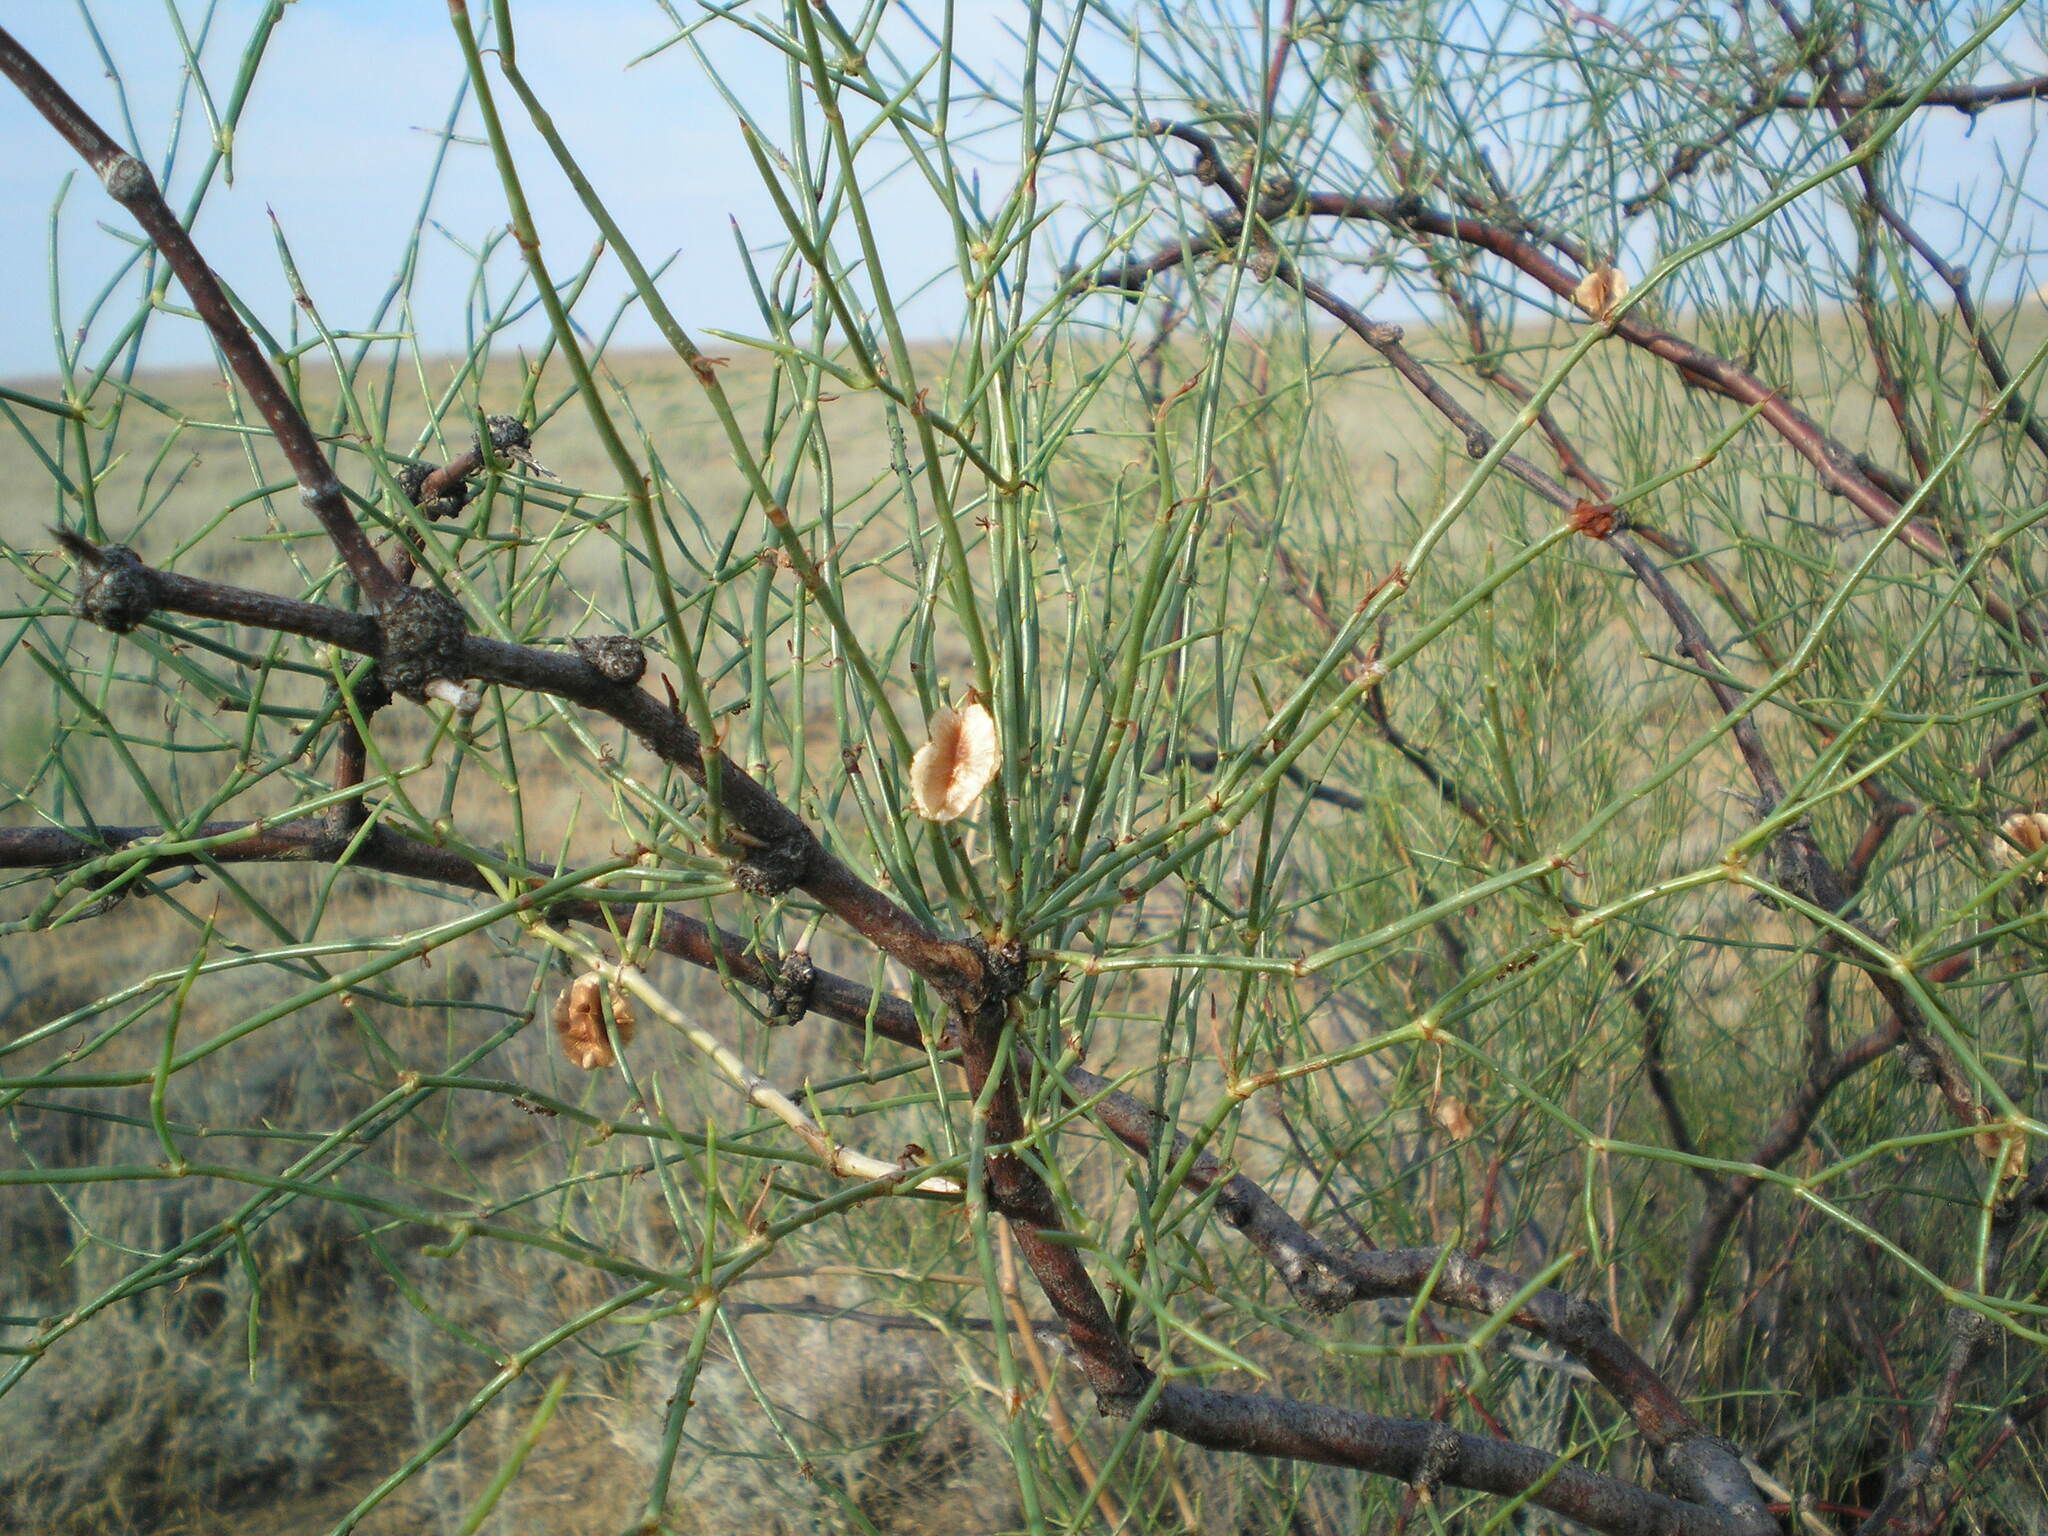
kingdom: Plantae
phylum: Tracheophyta
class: Magnoliopsida
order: Caryophyllales
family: Polygonaceae
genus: Calligonum
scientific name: Calligonum aphyllum
